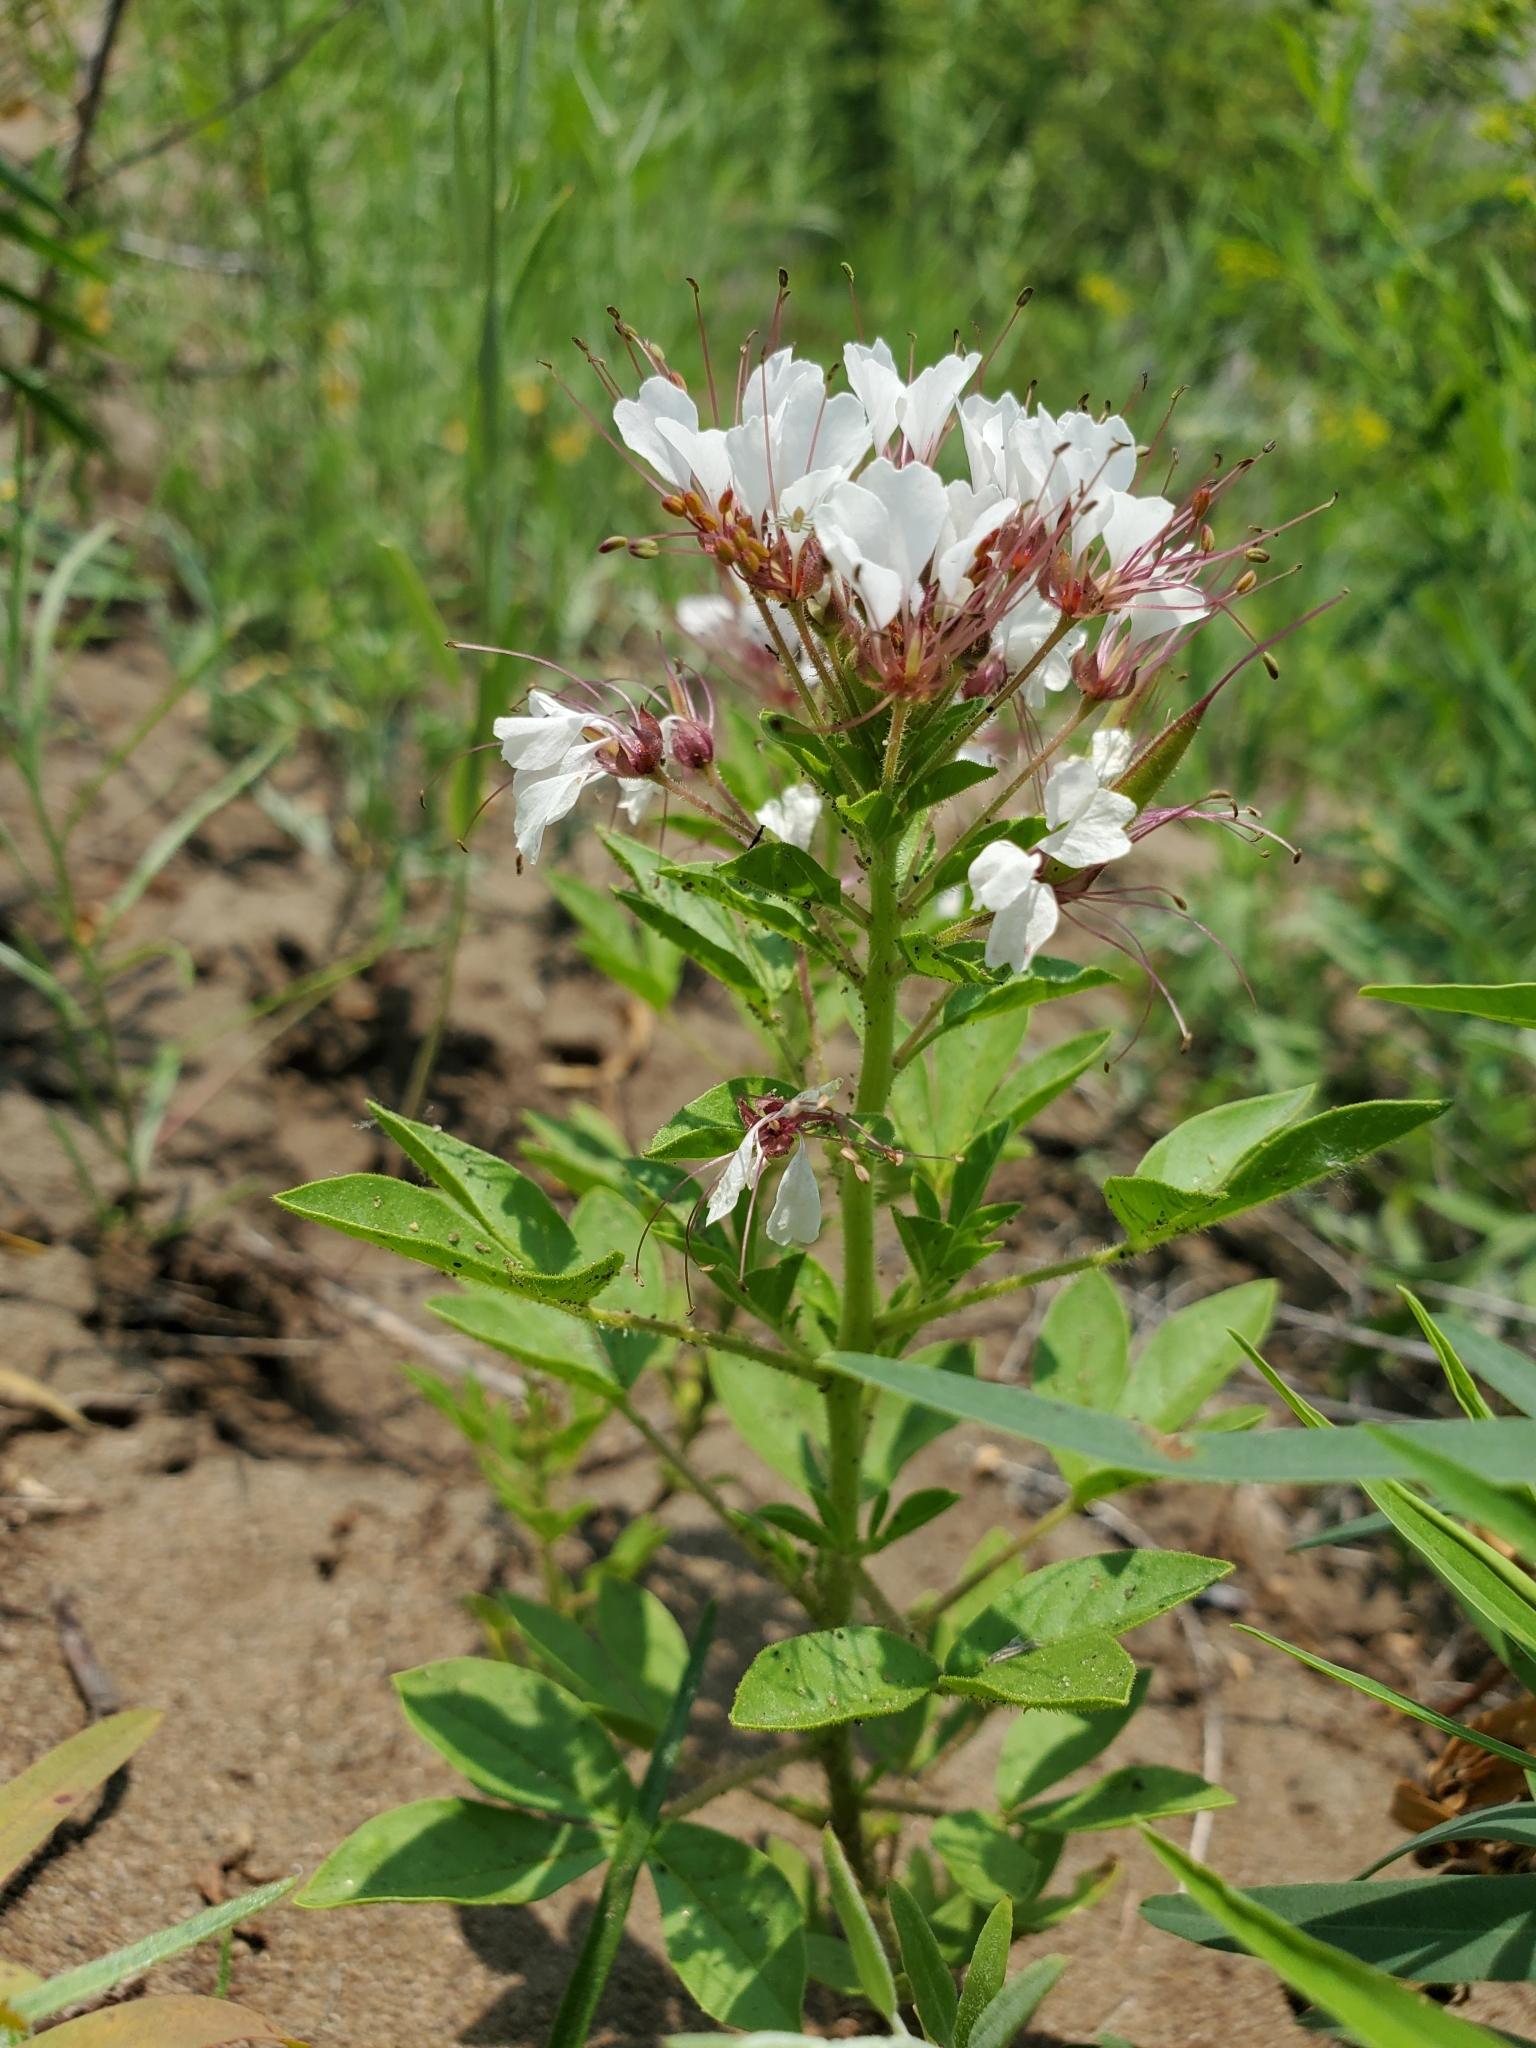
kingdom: Plantae
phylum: Tracheophyta
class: Magnoliopsida
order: Brassicales
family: Cleomaceae
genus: Polanisia
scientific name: Polanisia dodecandra
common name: Clammyweed
